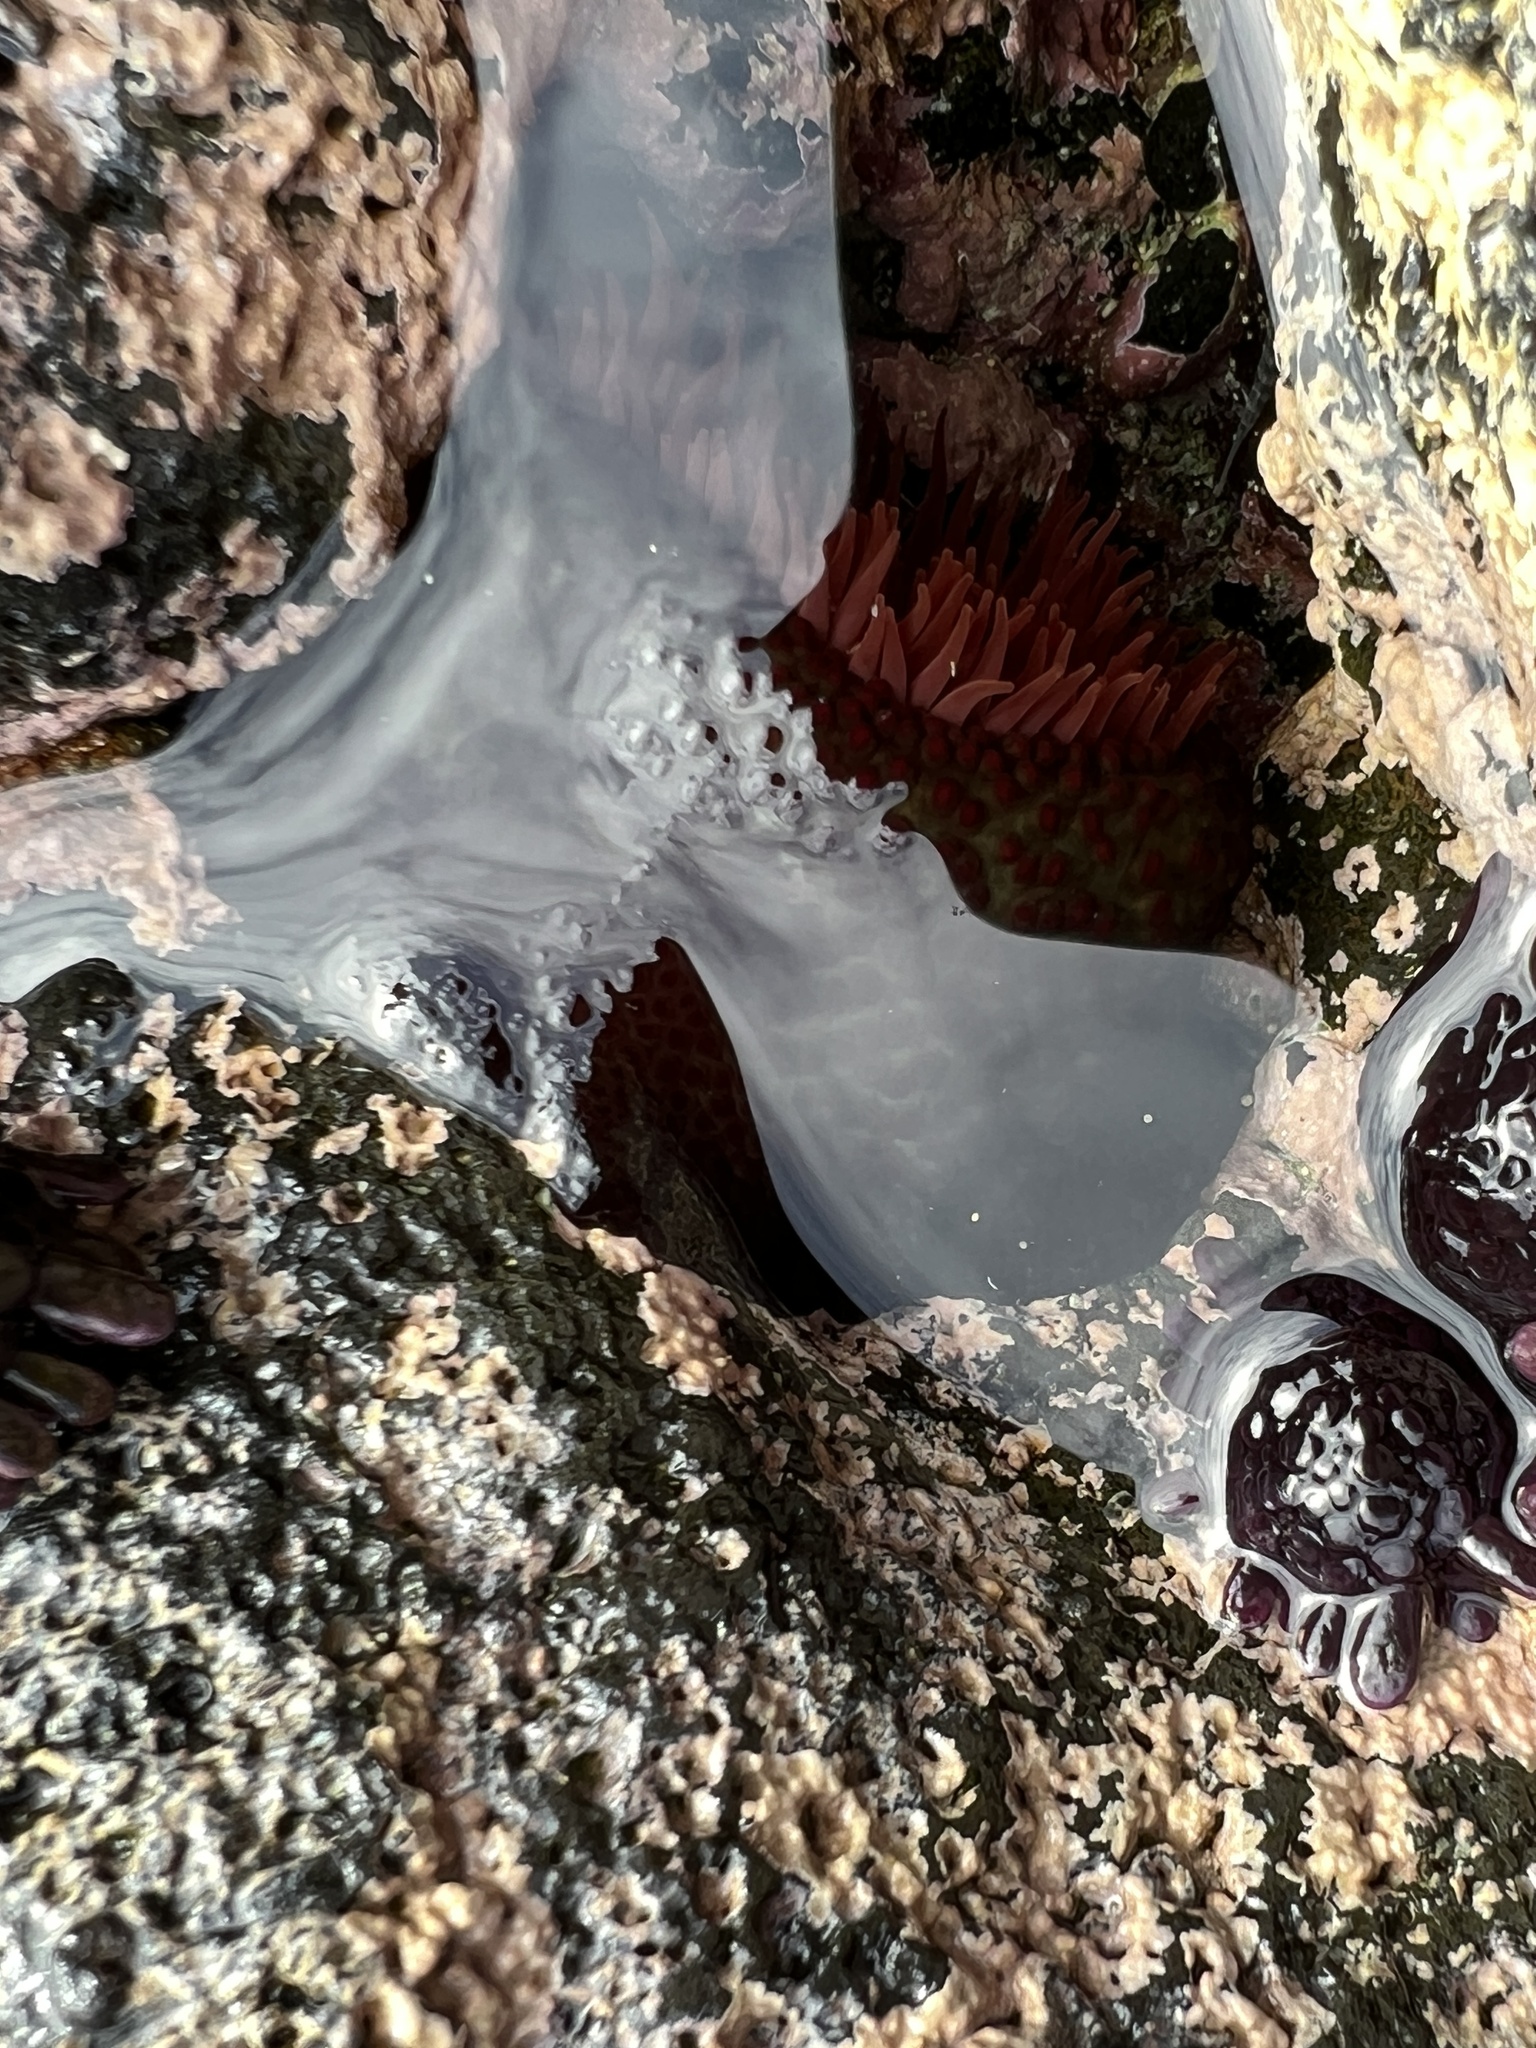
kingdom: Animalia
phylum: Cnidaria
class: Anthozoa
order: Actiniaria
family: Actiniidae
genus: Cladactella
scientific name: Cladactella manni
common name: Mann's anemone
